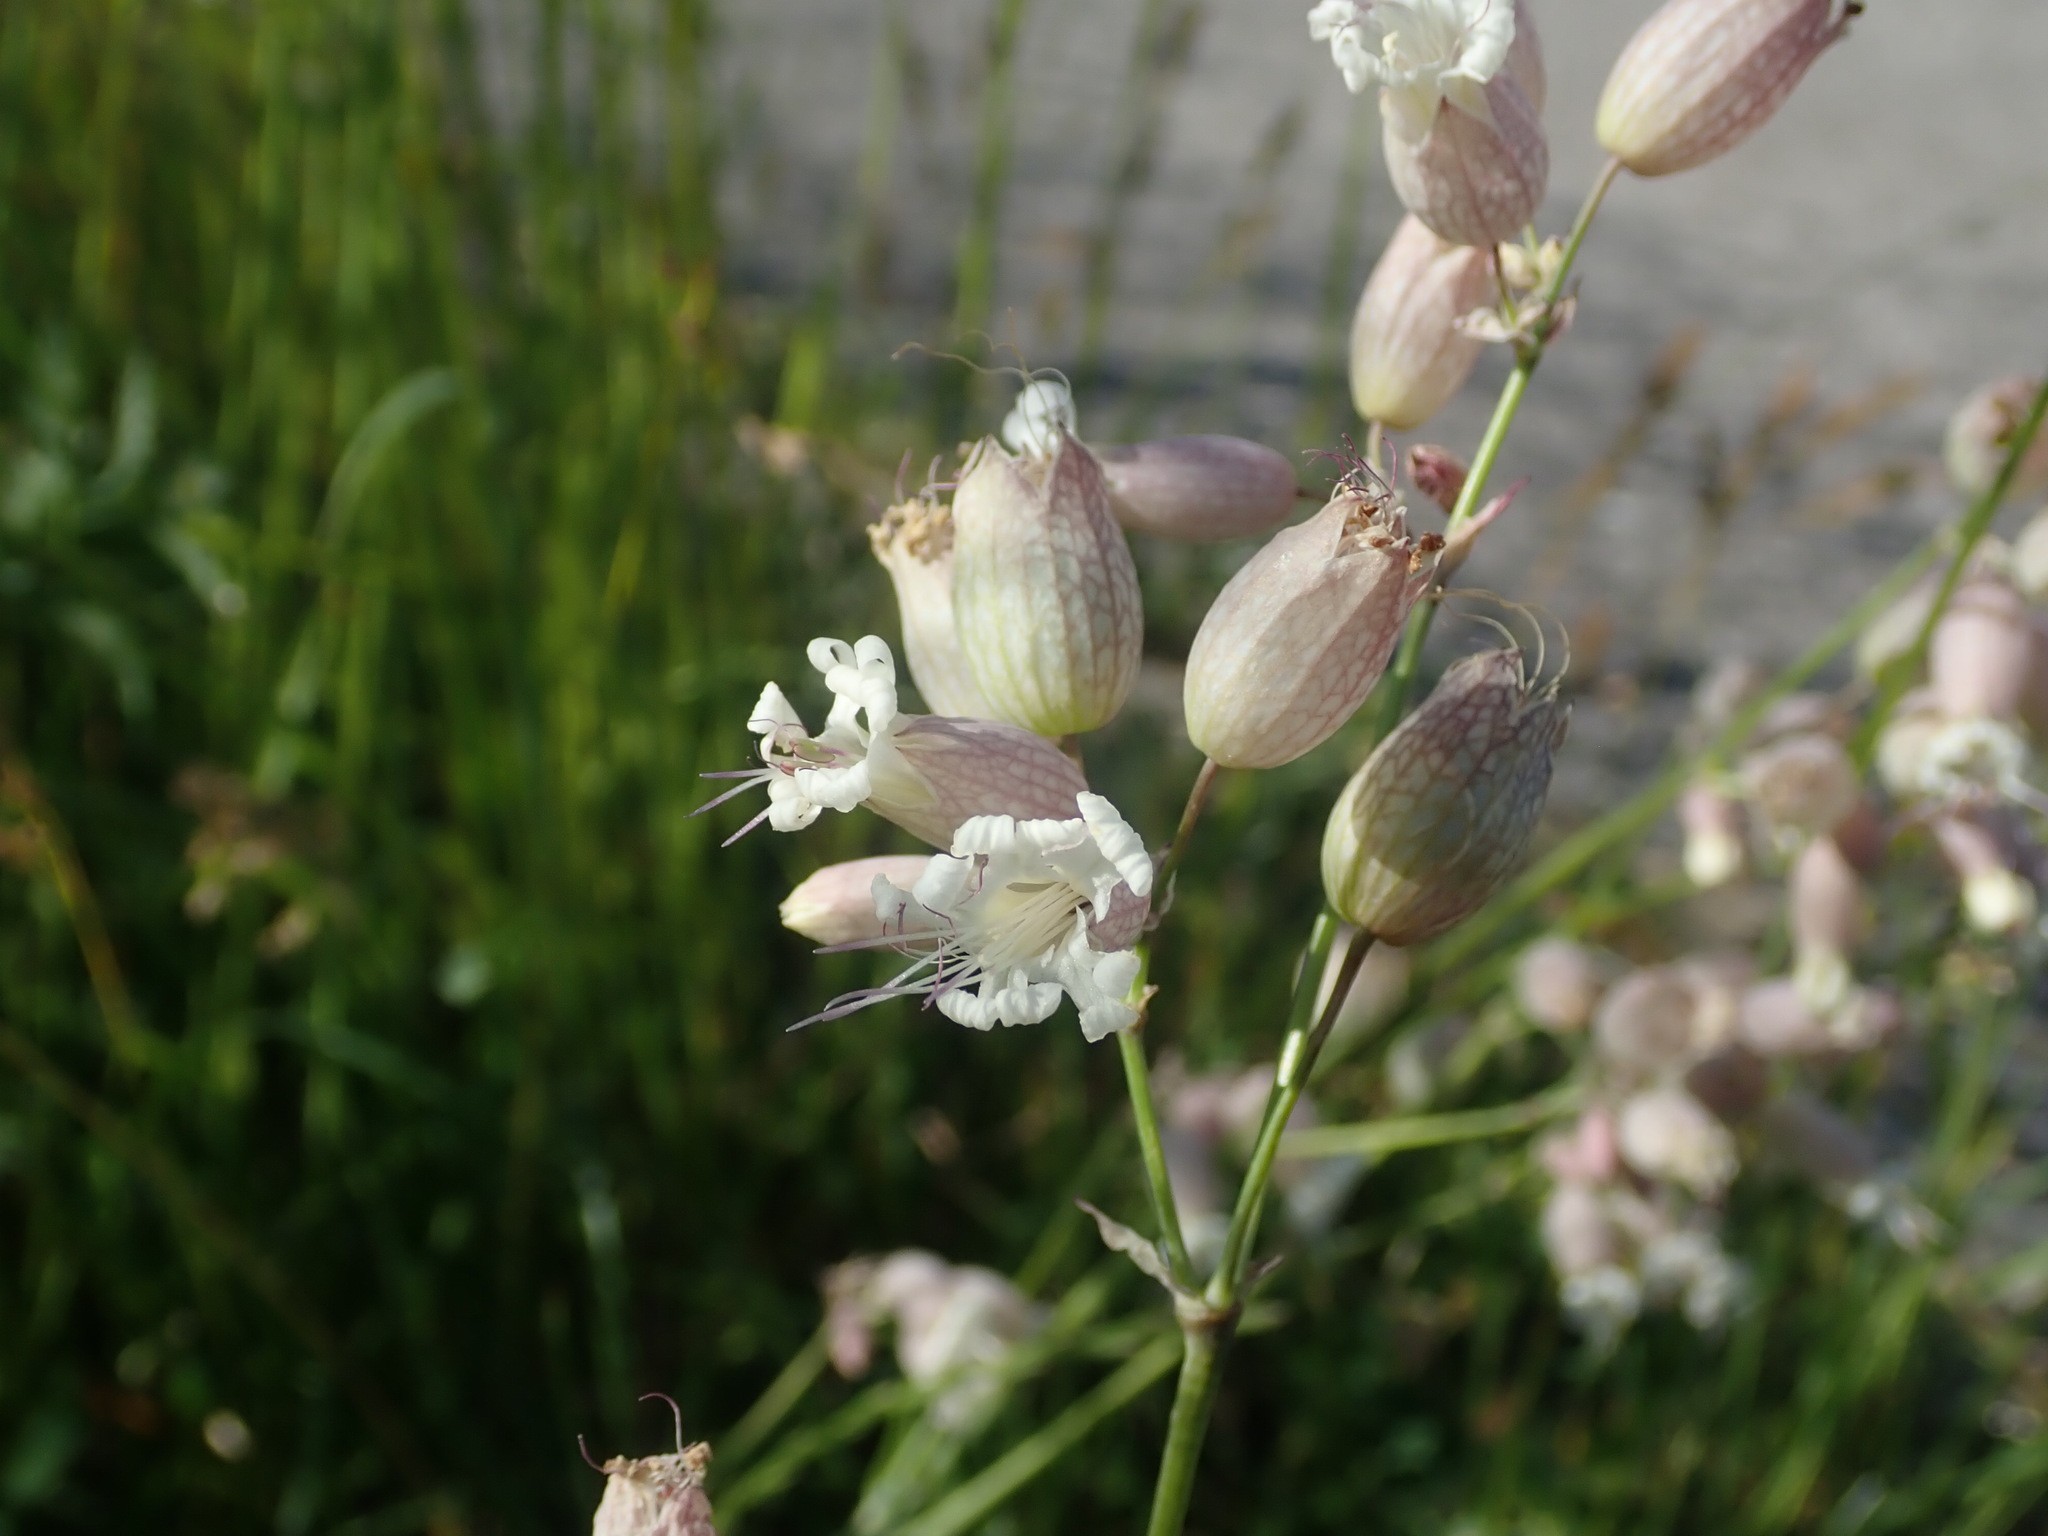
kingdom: Plantae
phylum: Tracheophyta
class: Magnoliopsida
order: Caryophyllales
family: Caryophyllaceae
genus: Silene
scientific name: Silene vulgaris
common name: Bladder campion
